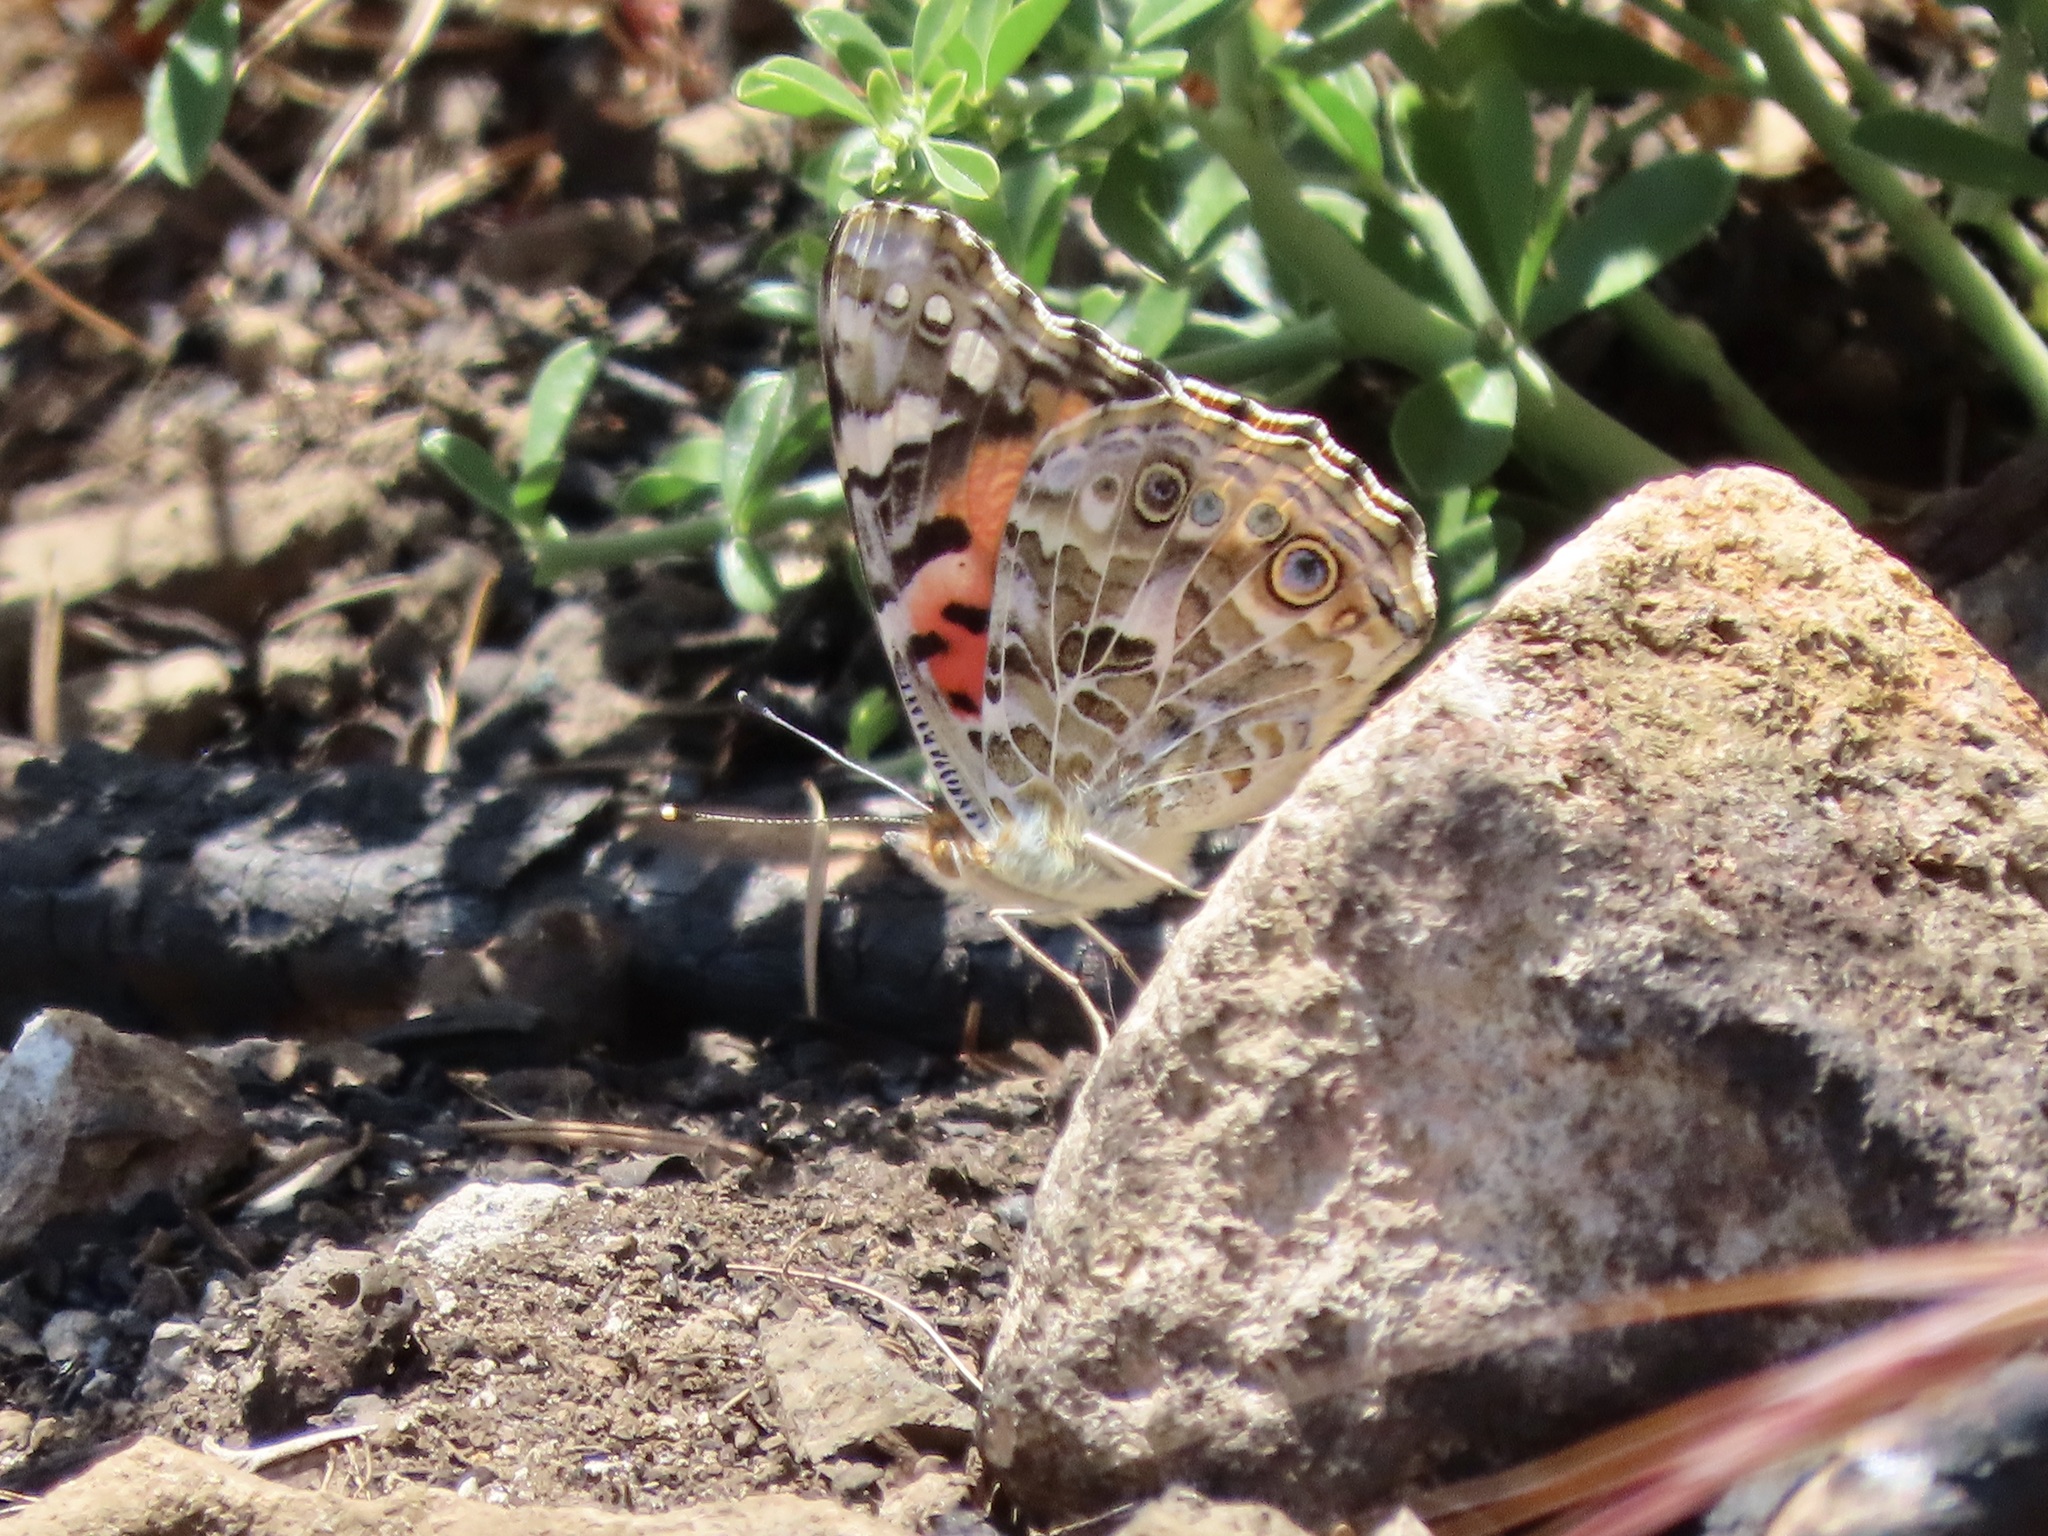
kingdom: Animalia
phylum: Arthropoda
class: Insecta
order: Lepidoptera
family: Nymphalidae
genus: Vanessa
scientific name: Vanessa cardui
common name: Painted lady
